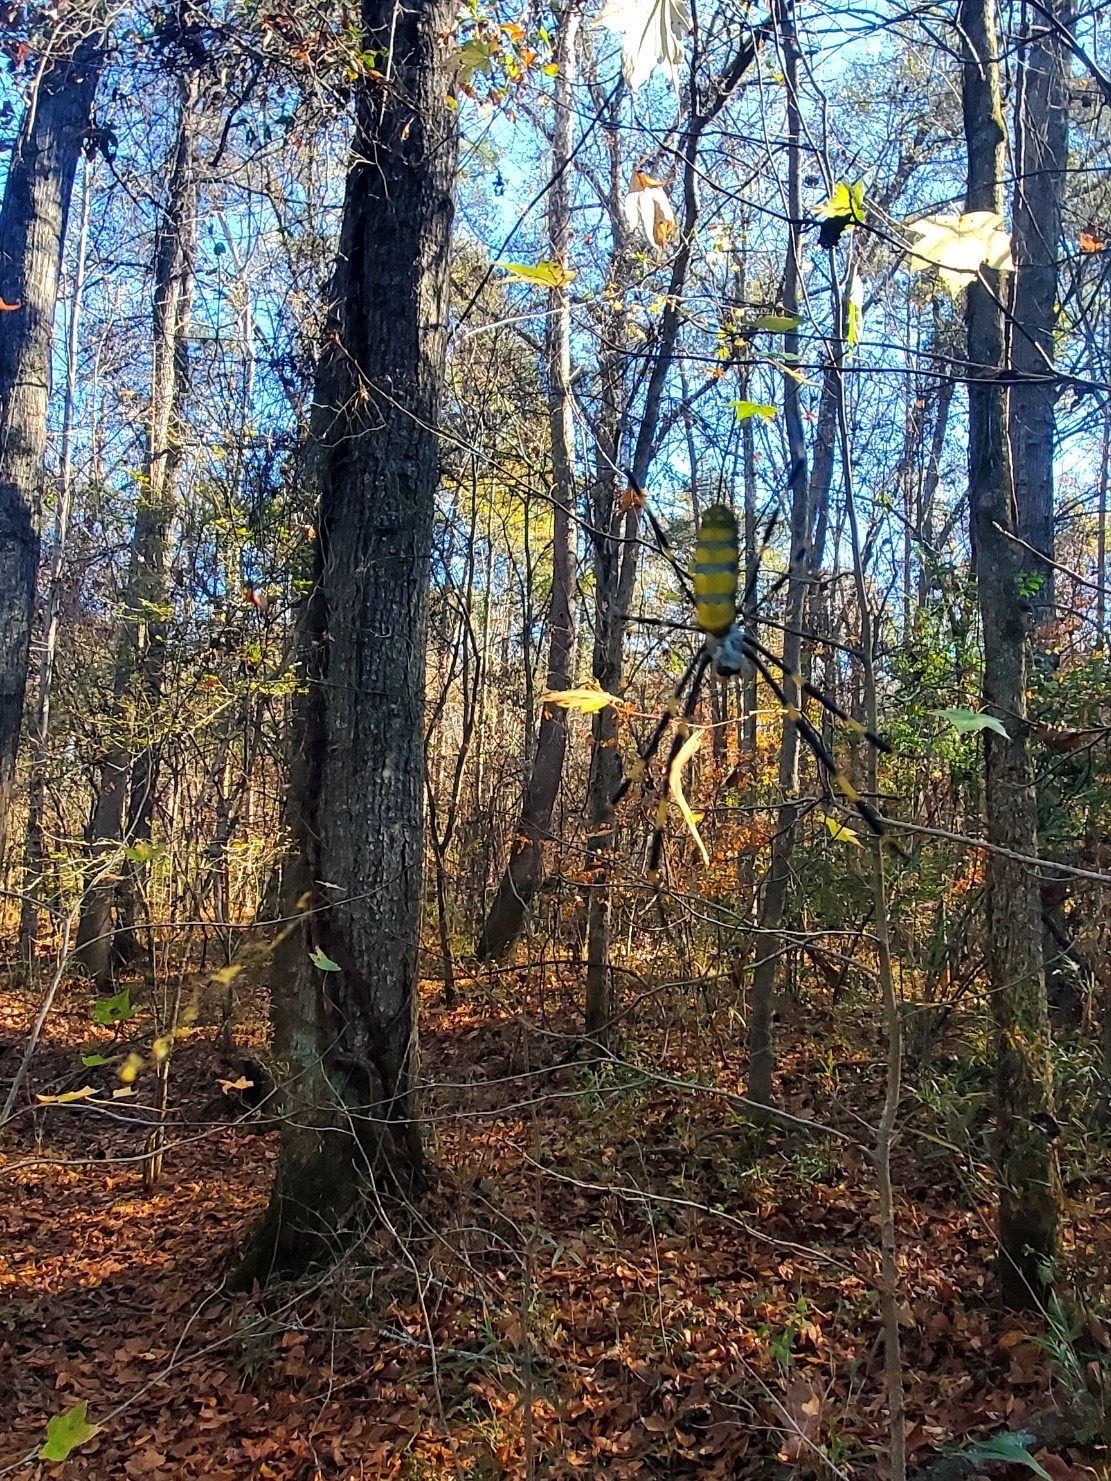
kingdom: Animalia
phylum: Arthropoda
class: Arachnida
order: Araneae
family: Araneidae
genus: Trichonephila
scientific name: Trichonephila clavata
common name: Jorō spider
